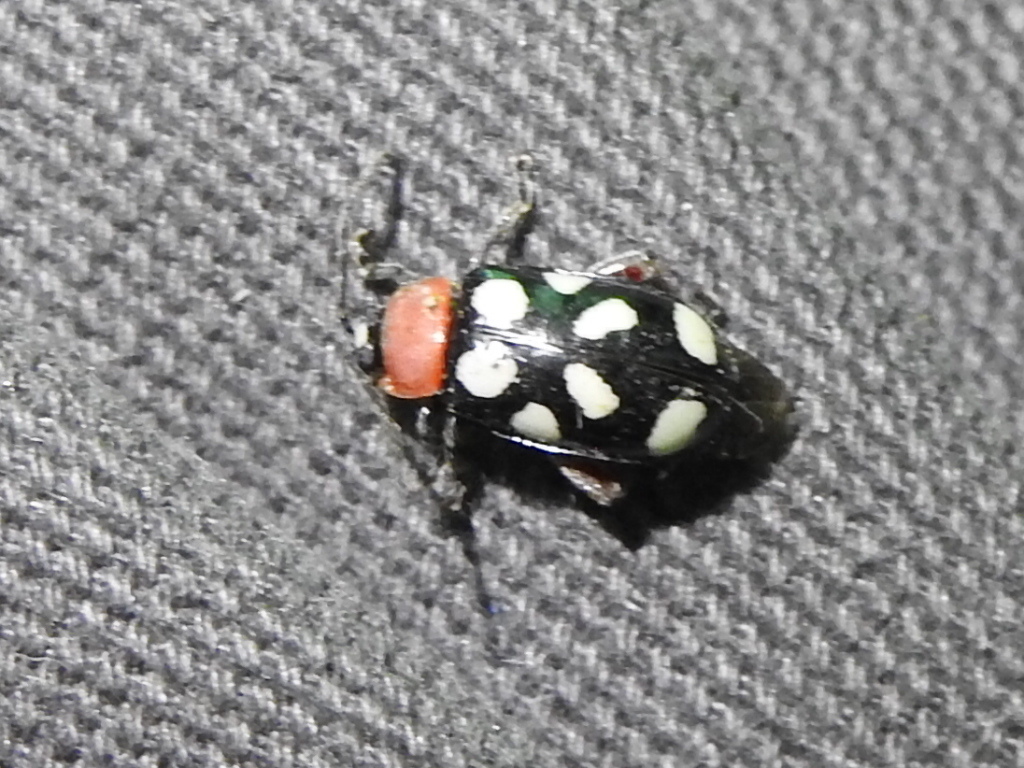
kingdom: Animalia
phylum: Arthropoda
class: Insecta
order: Coleoptera
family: Chrysomelidae
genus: Omophoita
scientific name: Omophoita cyanipennis
